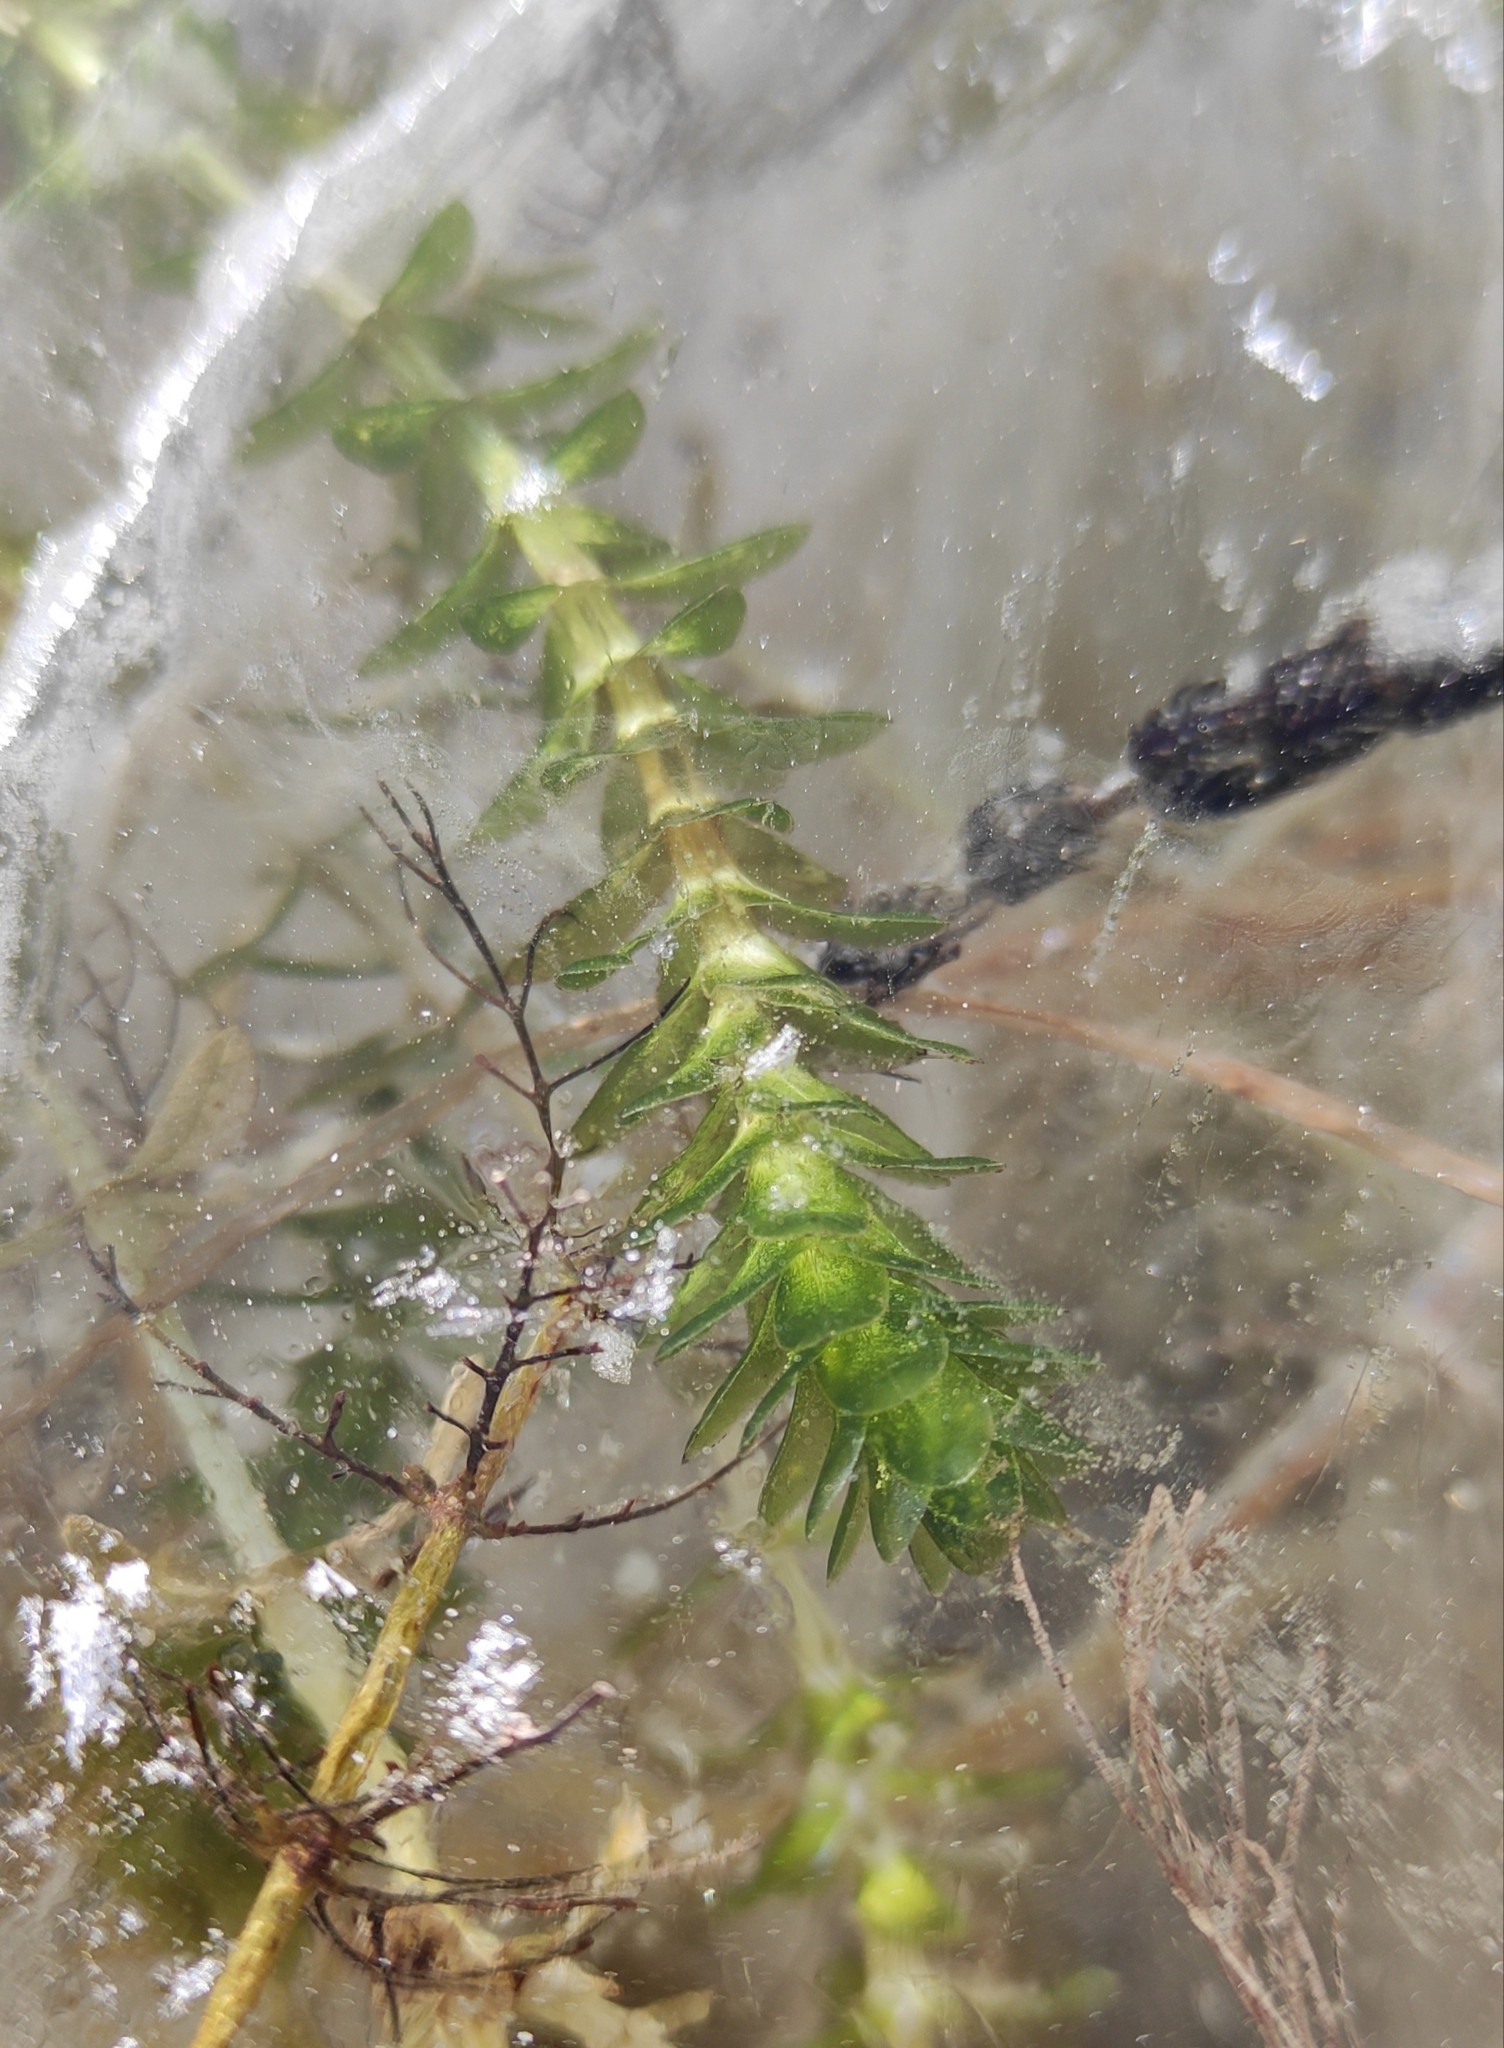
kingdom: Plantae
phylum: Tracheophyta
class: Liliopsida
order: Alismatales
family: Hydrocharitaceae
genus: Elodea
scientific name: Elodea canadensis
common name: Canadian waterweed
